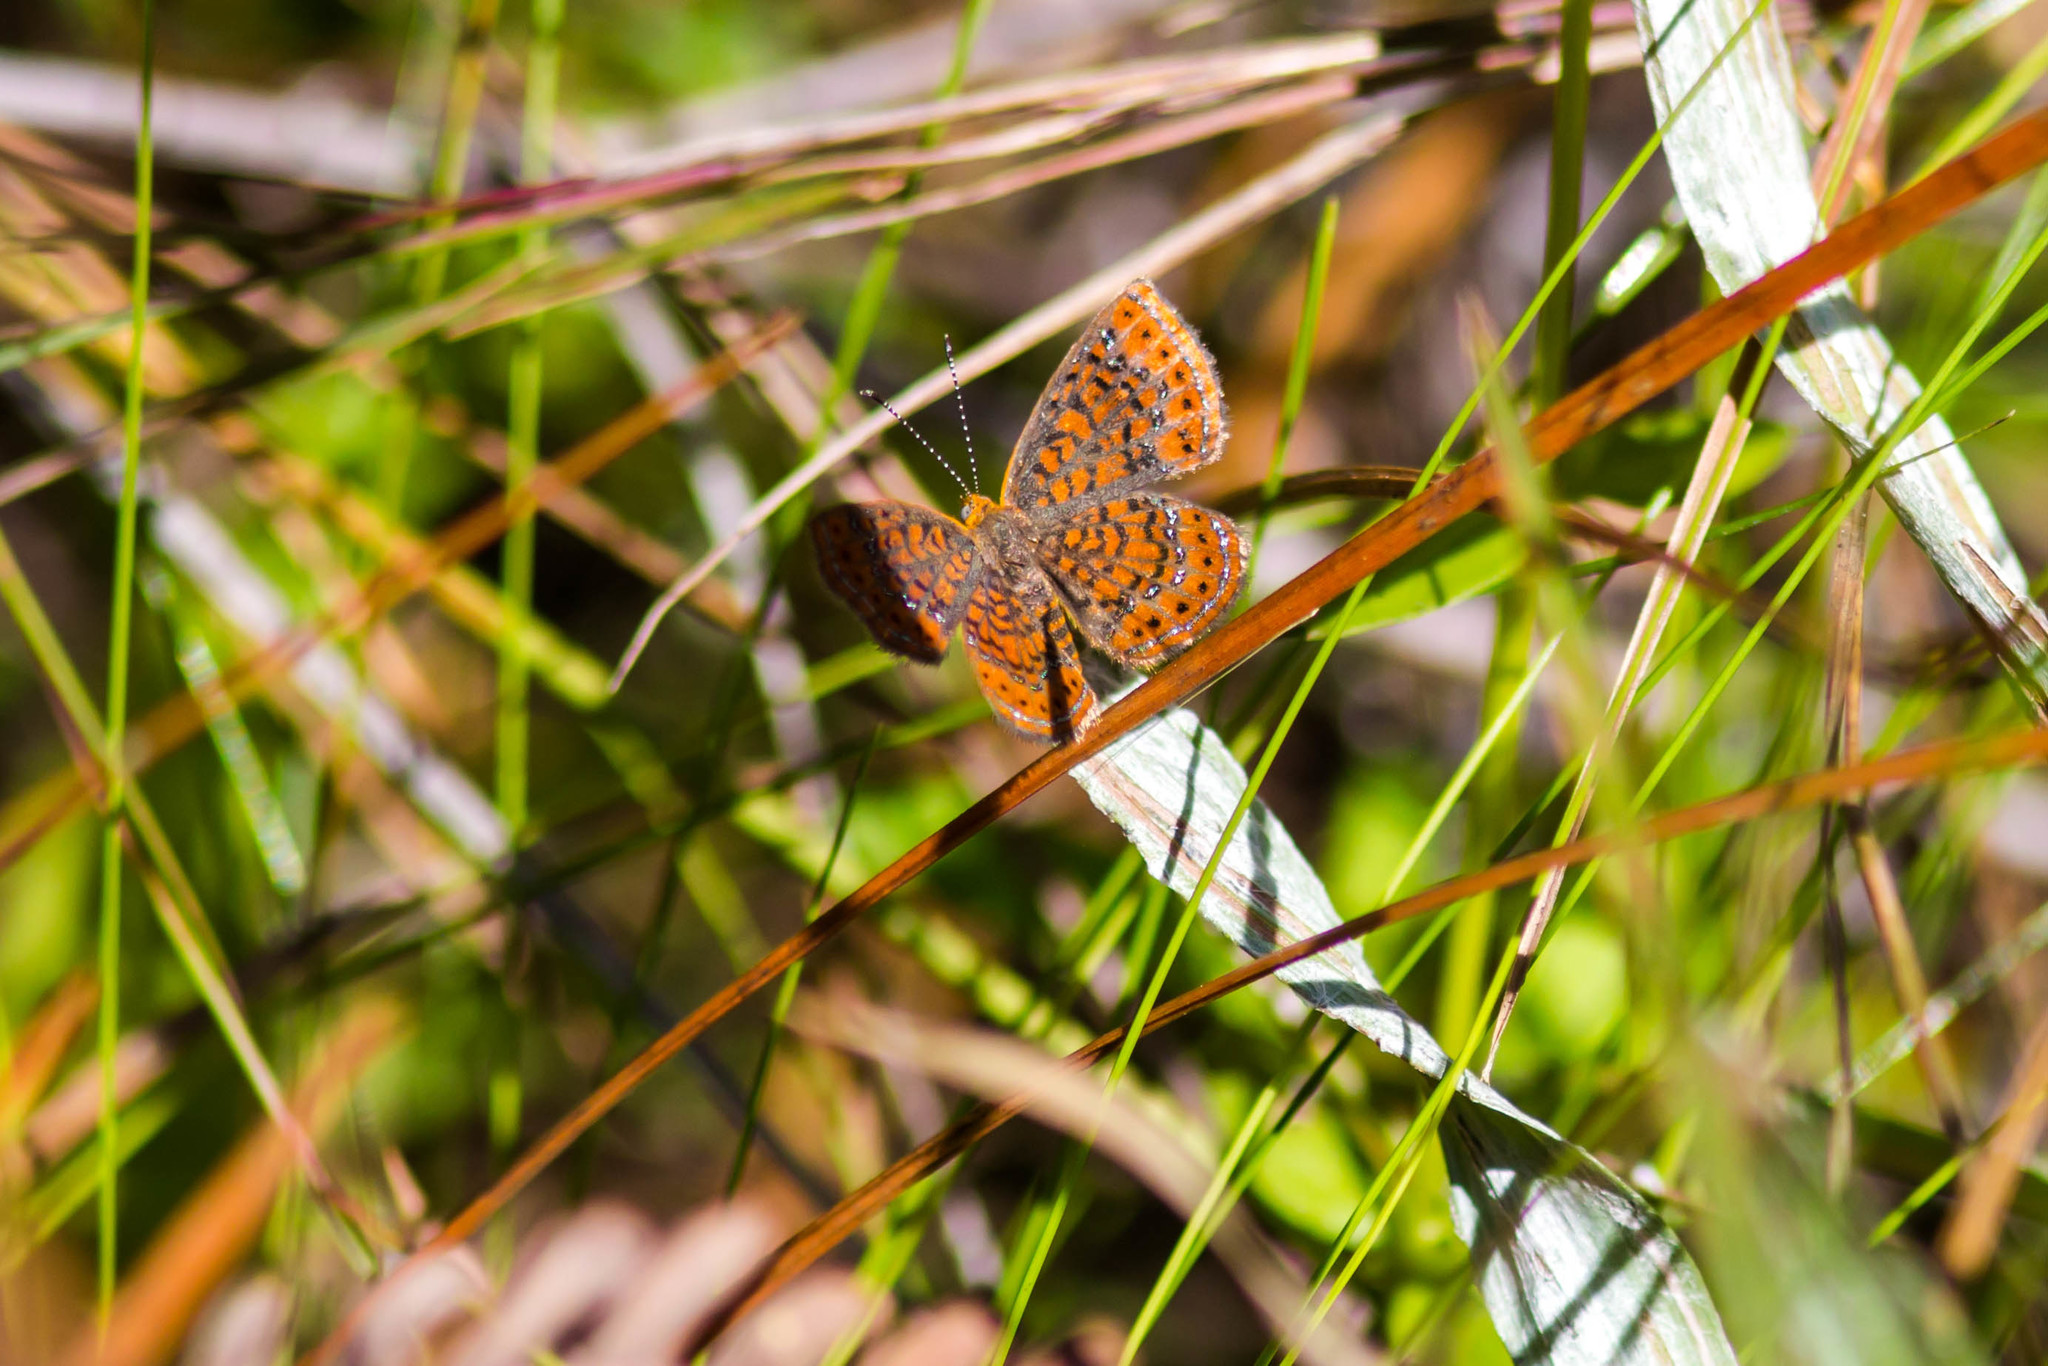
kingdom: Animalia
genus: Calephelis
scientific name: Calephelis virginiensis
